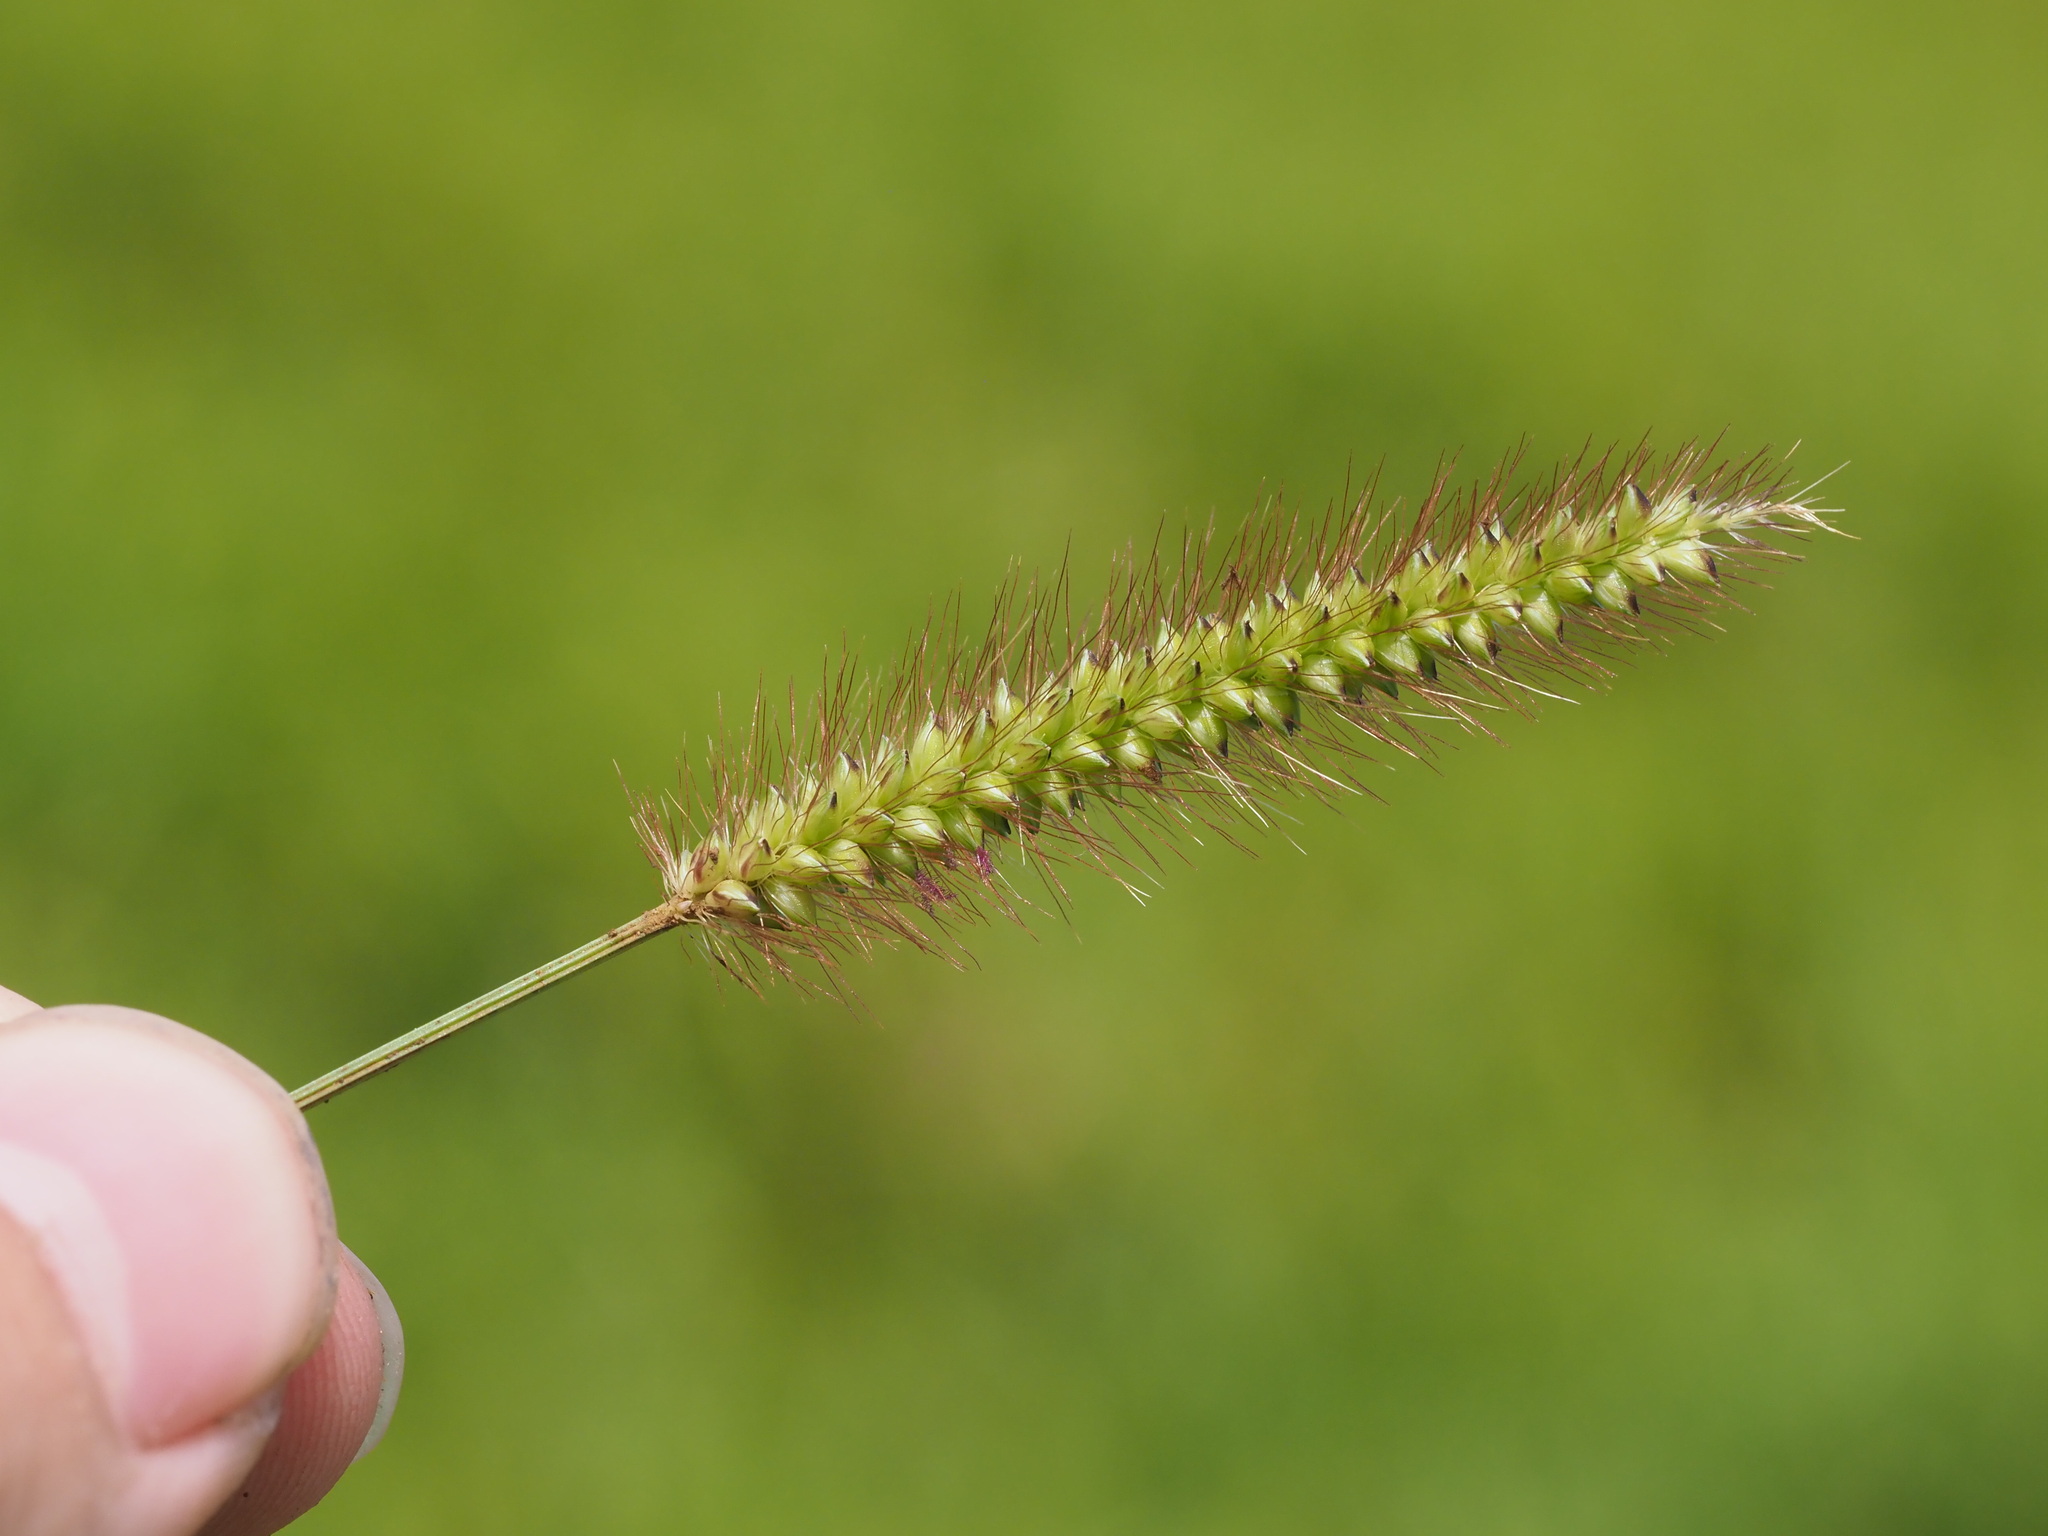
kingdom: Plantae
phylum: Tracheophyta
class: Liliopsida
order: Poales
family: Poaceae
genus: Setaria
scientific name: Setaria parviflora
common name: Knotroot bristle-grass
